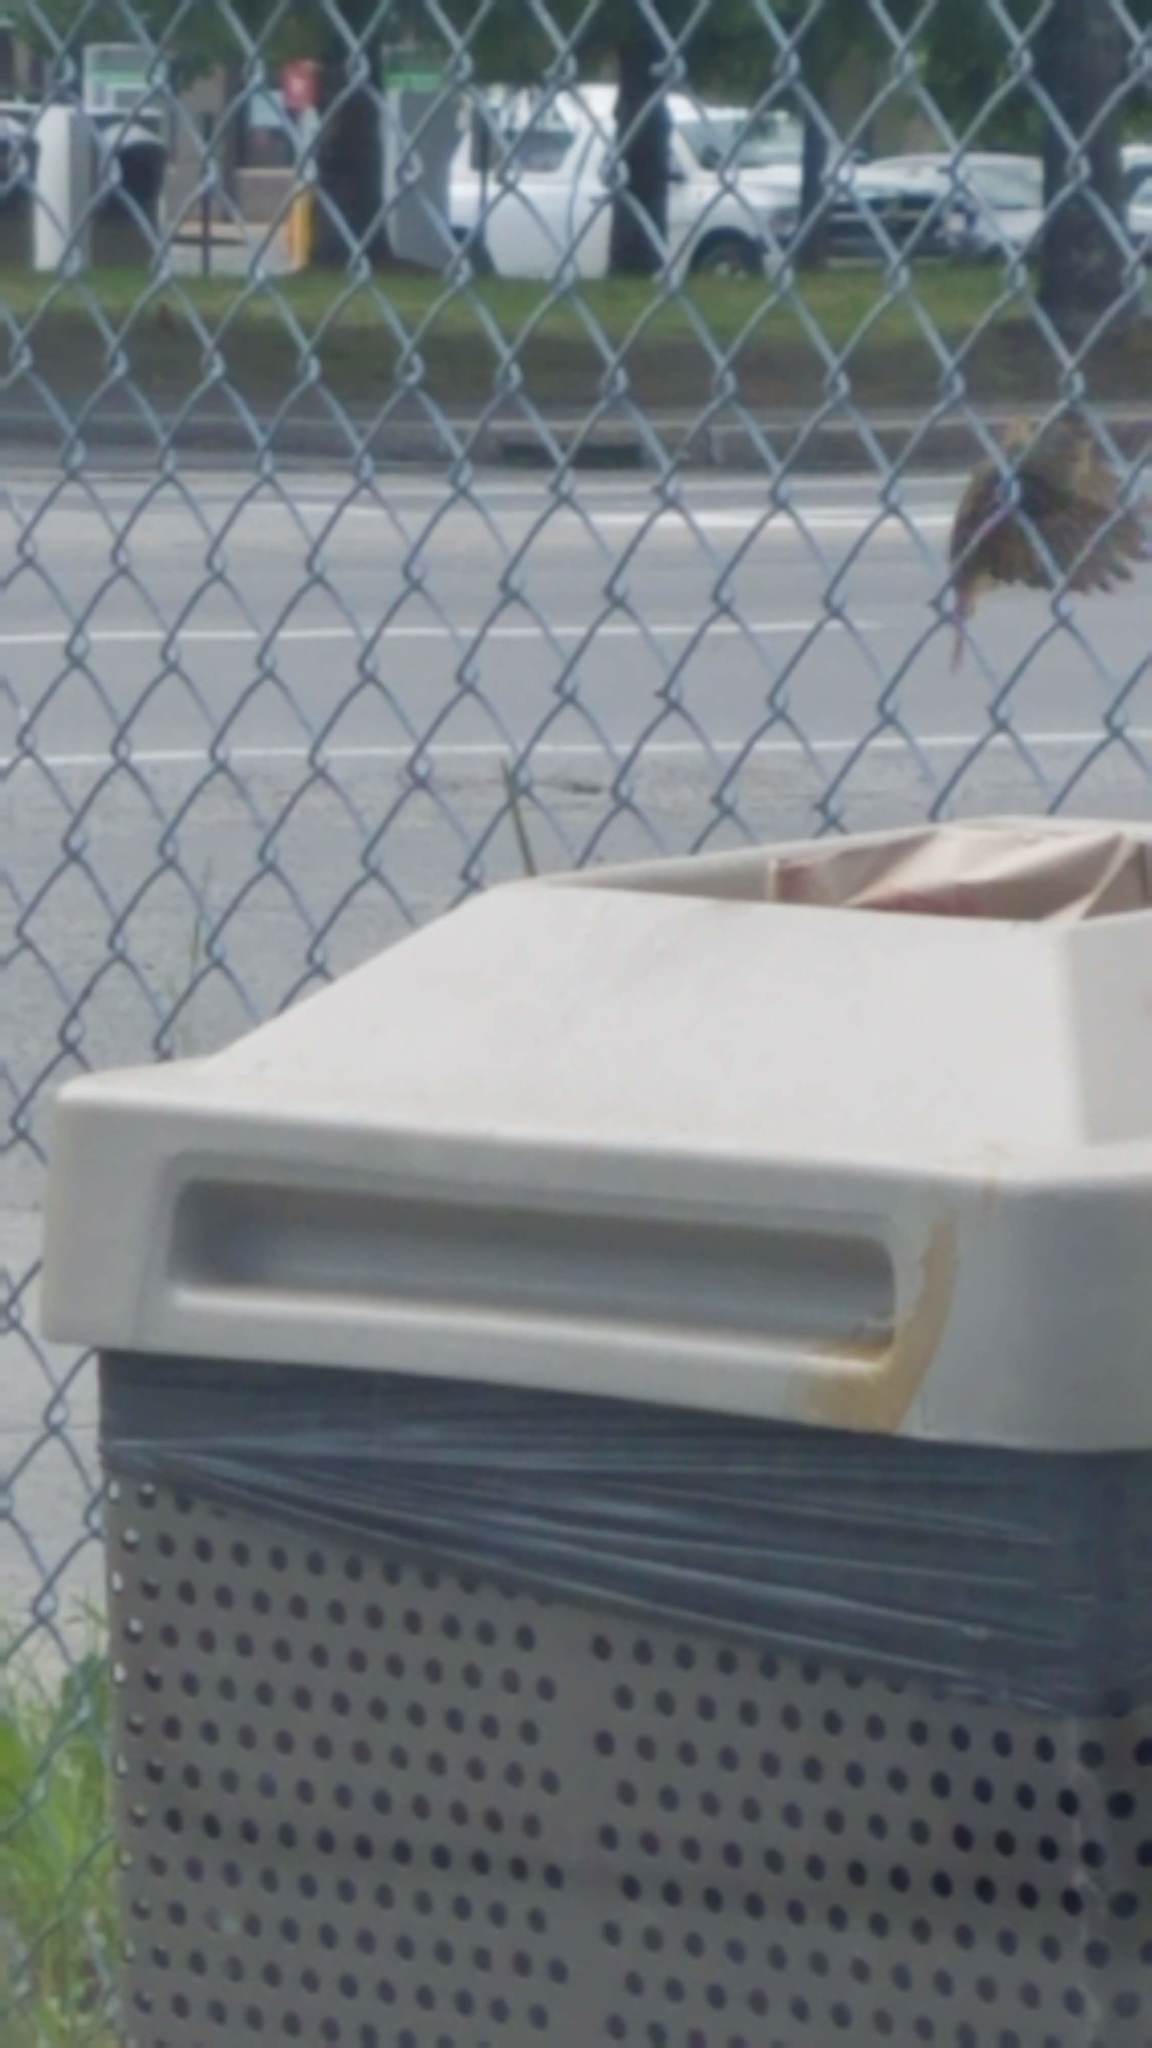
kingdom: Animalia
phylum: Chordata
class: Aves
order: Passeriformes
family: Passeridae
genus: Passer
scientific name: Passer domesticus
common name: House sparrow
